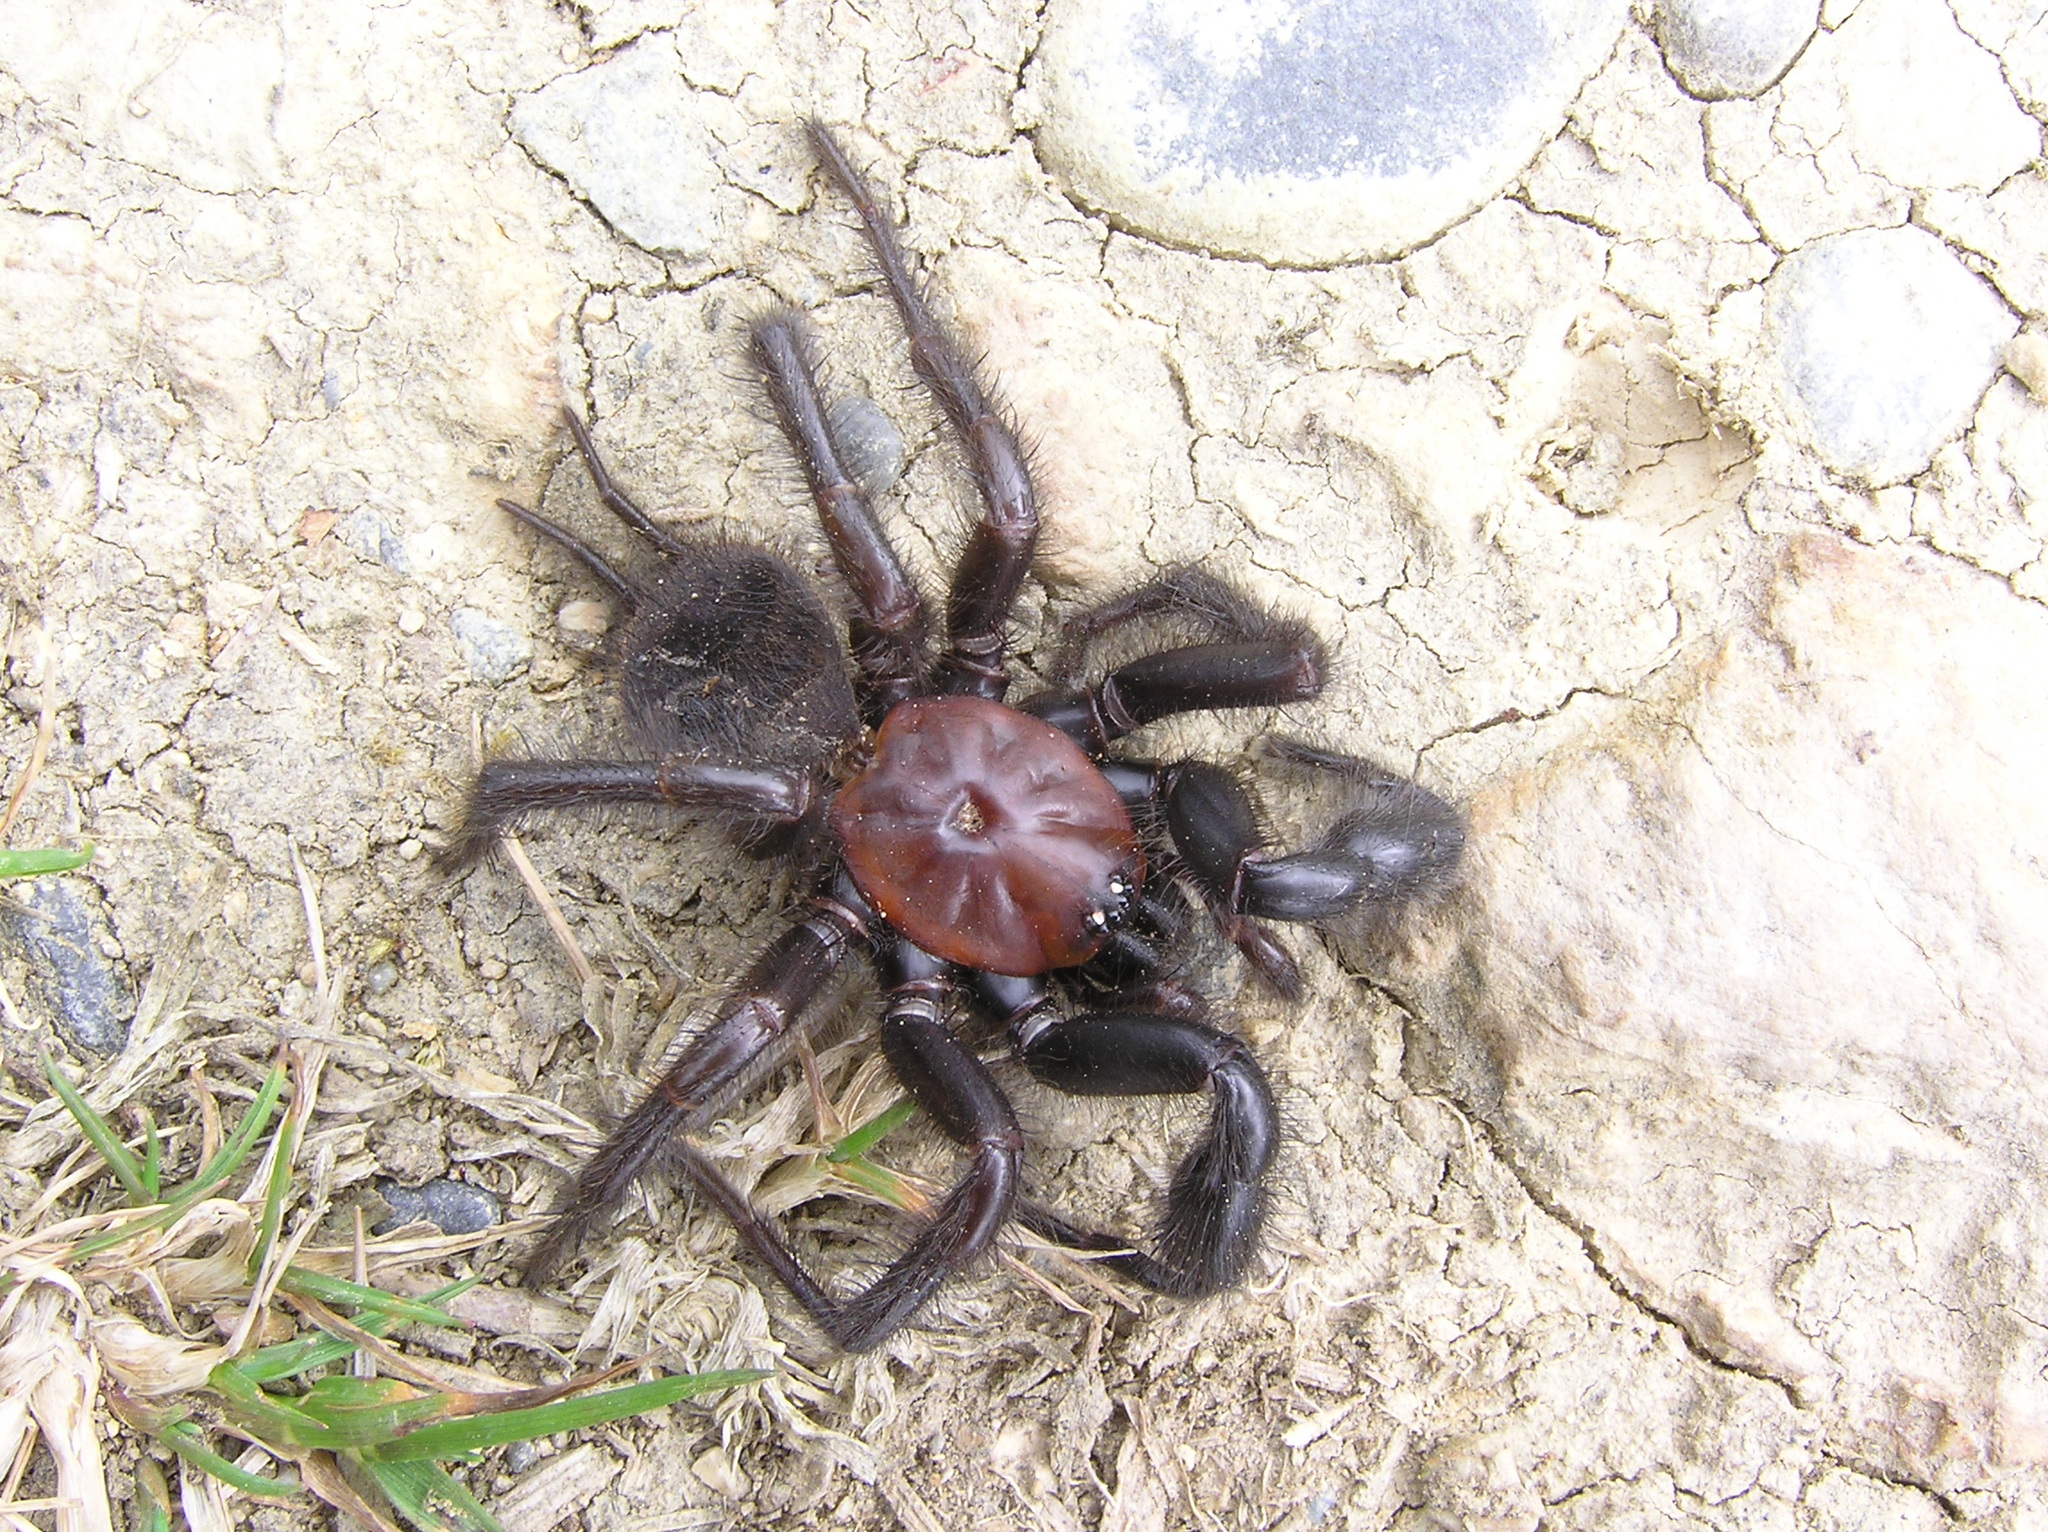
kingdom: Animalia
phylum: Arthropoda
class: Arachnida
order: Araneae
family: Porrhothelidae
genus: Porrhothele
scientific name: Porrhothele antipodiana
